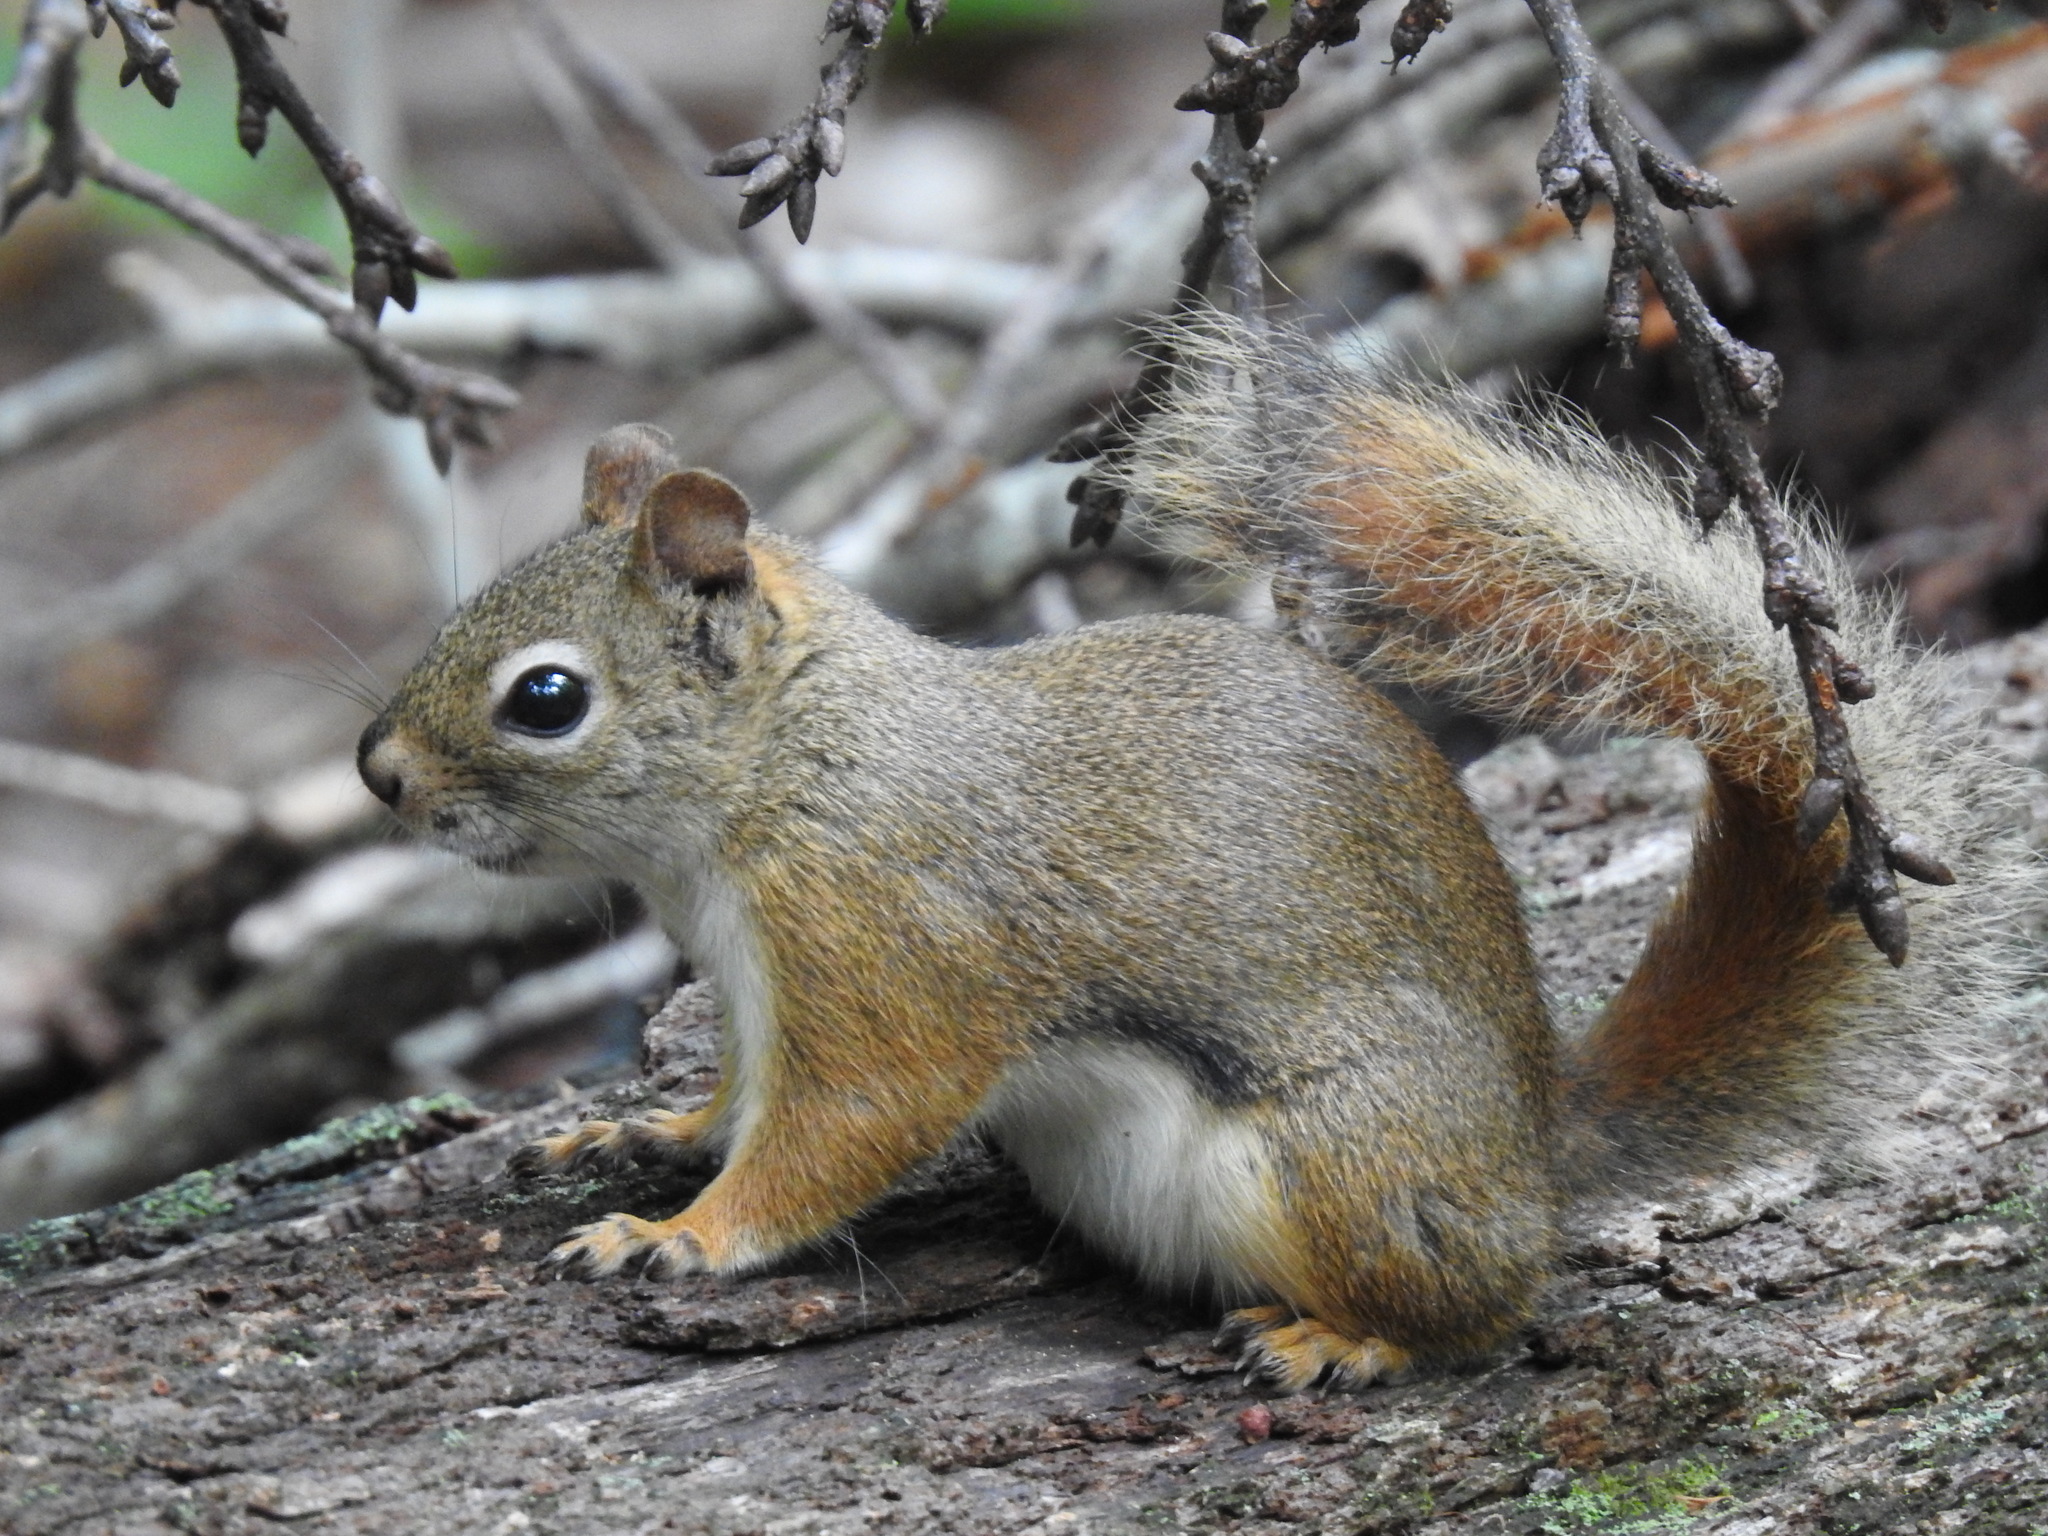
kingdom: Animalia
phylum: Chordata
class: Mammalia
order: Rodentia
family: Sciuridae
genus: Tamiasciurus
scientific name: Tamiasciurus hudsonicus
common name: Red squirrel
